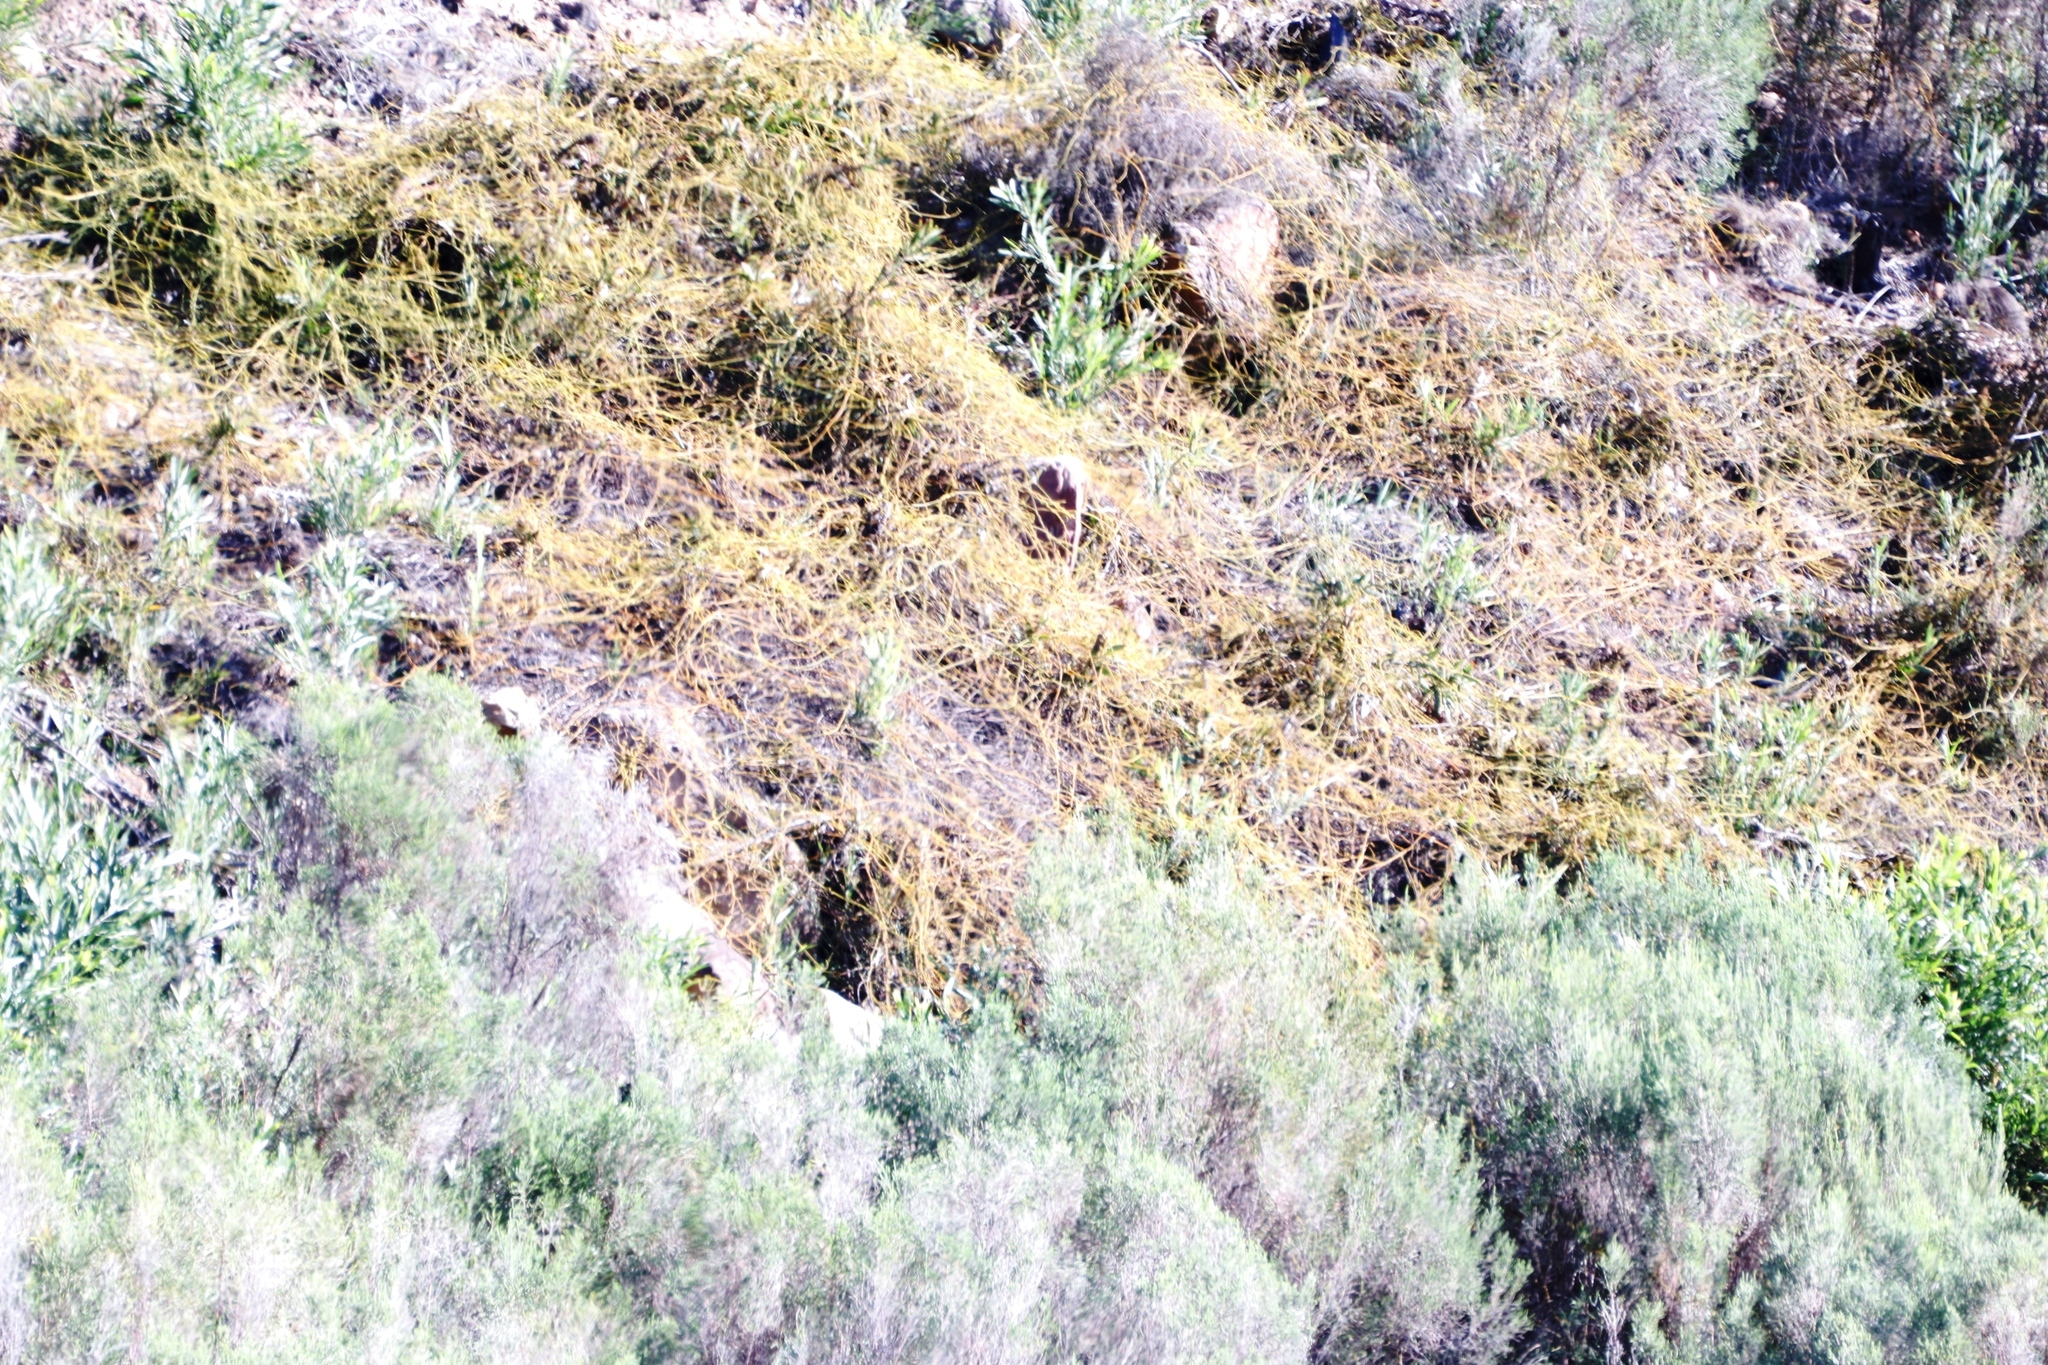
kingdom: Plantae
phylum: Tracheophyta
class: Magnoliopsida
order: Laurales
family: Lauraceae
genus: Cassytha
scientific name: Cassytha ciliolata
